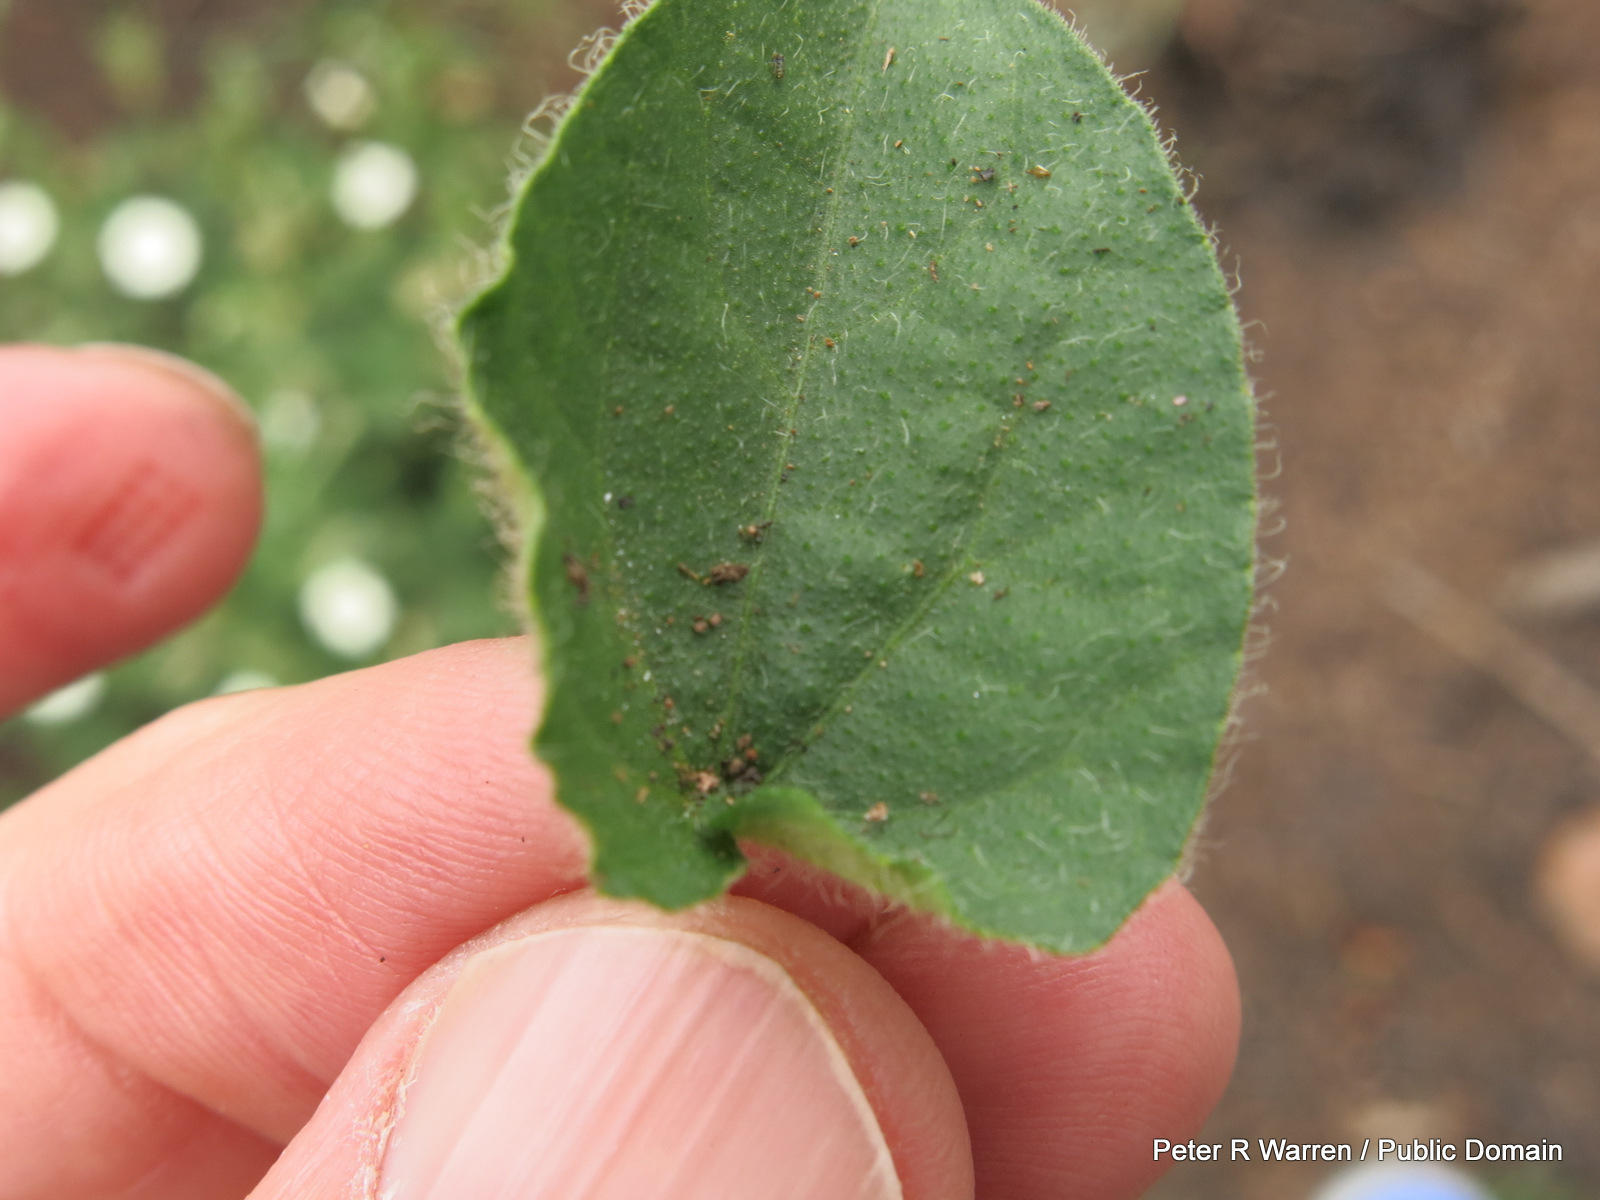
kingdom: Plantae
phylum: Tracheophyta
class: Magnoliopsida
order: Lamiales
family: Acanthaceae
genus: Thunbergia
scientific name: Thunbergia neglecta
